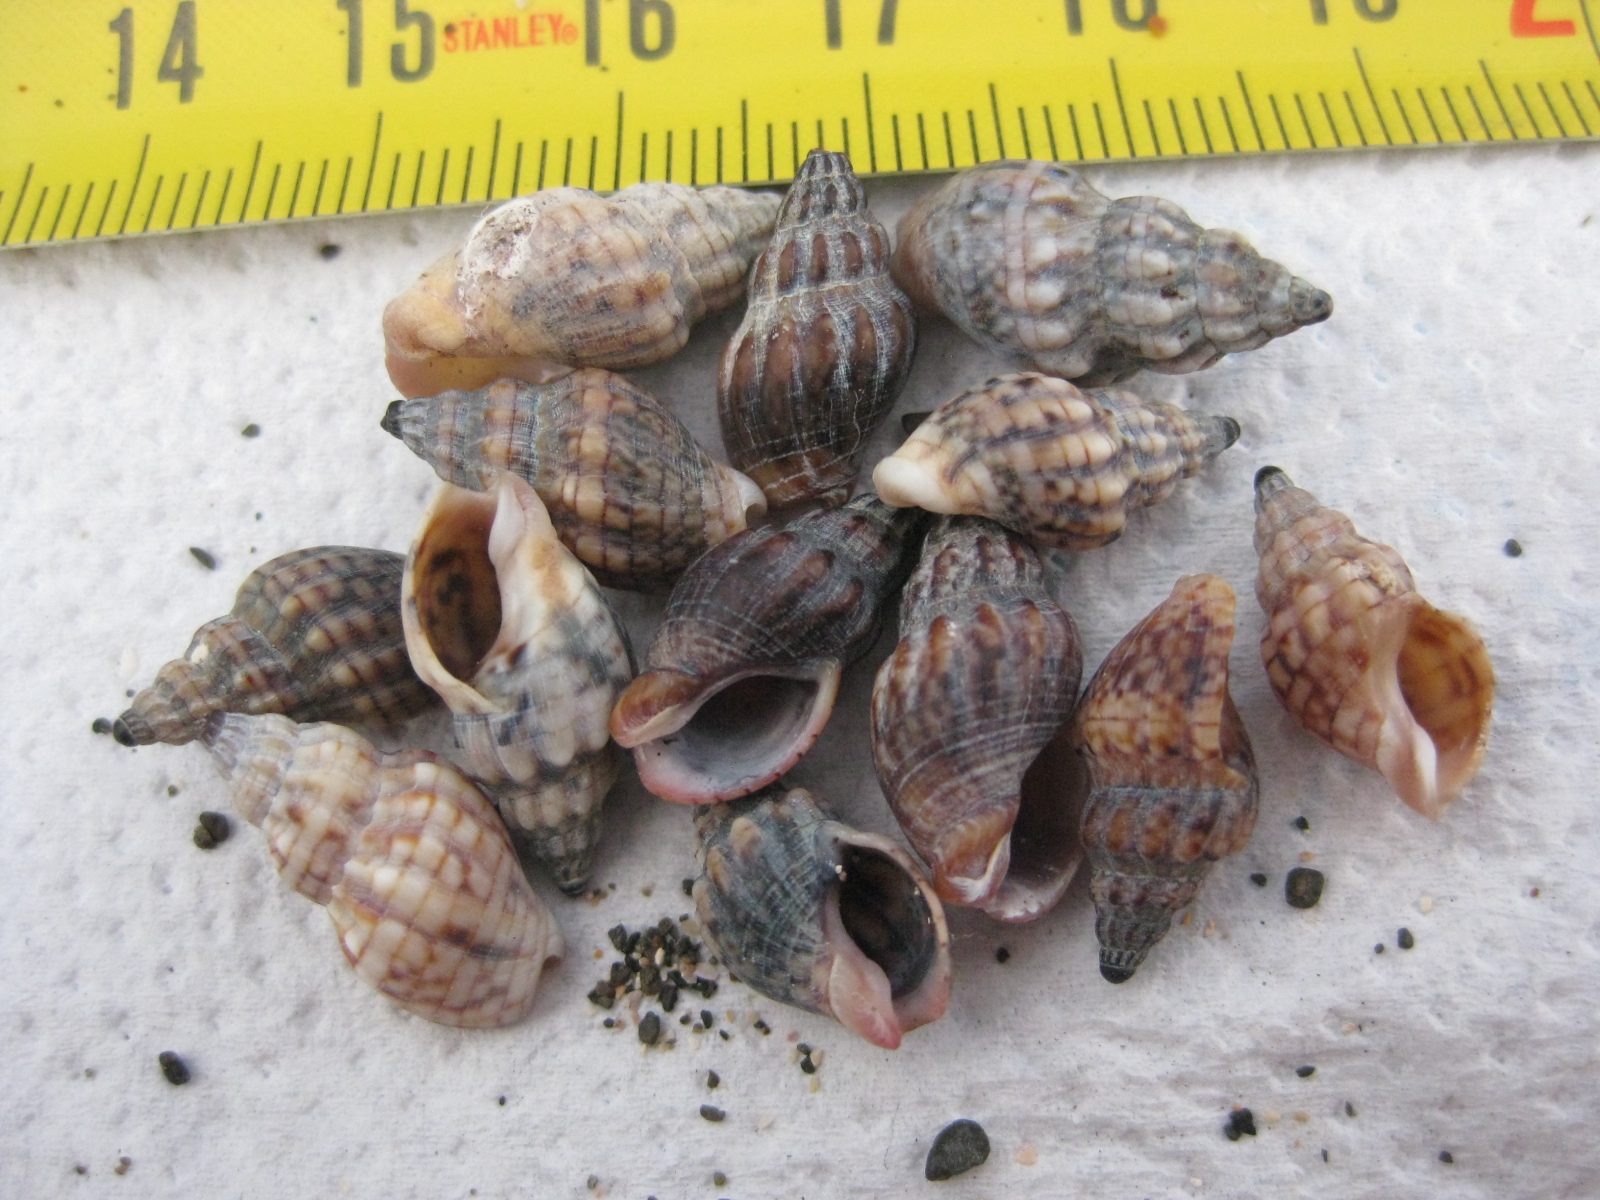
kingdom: Animalia
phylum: Mollusca
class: Gastropoda
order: Neogastropoda
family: Cominellidae
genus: Cominella
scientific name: Cominella quoyana
